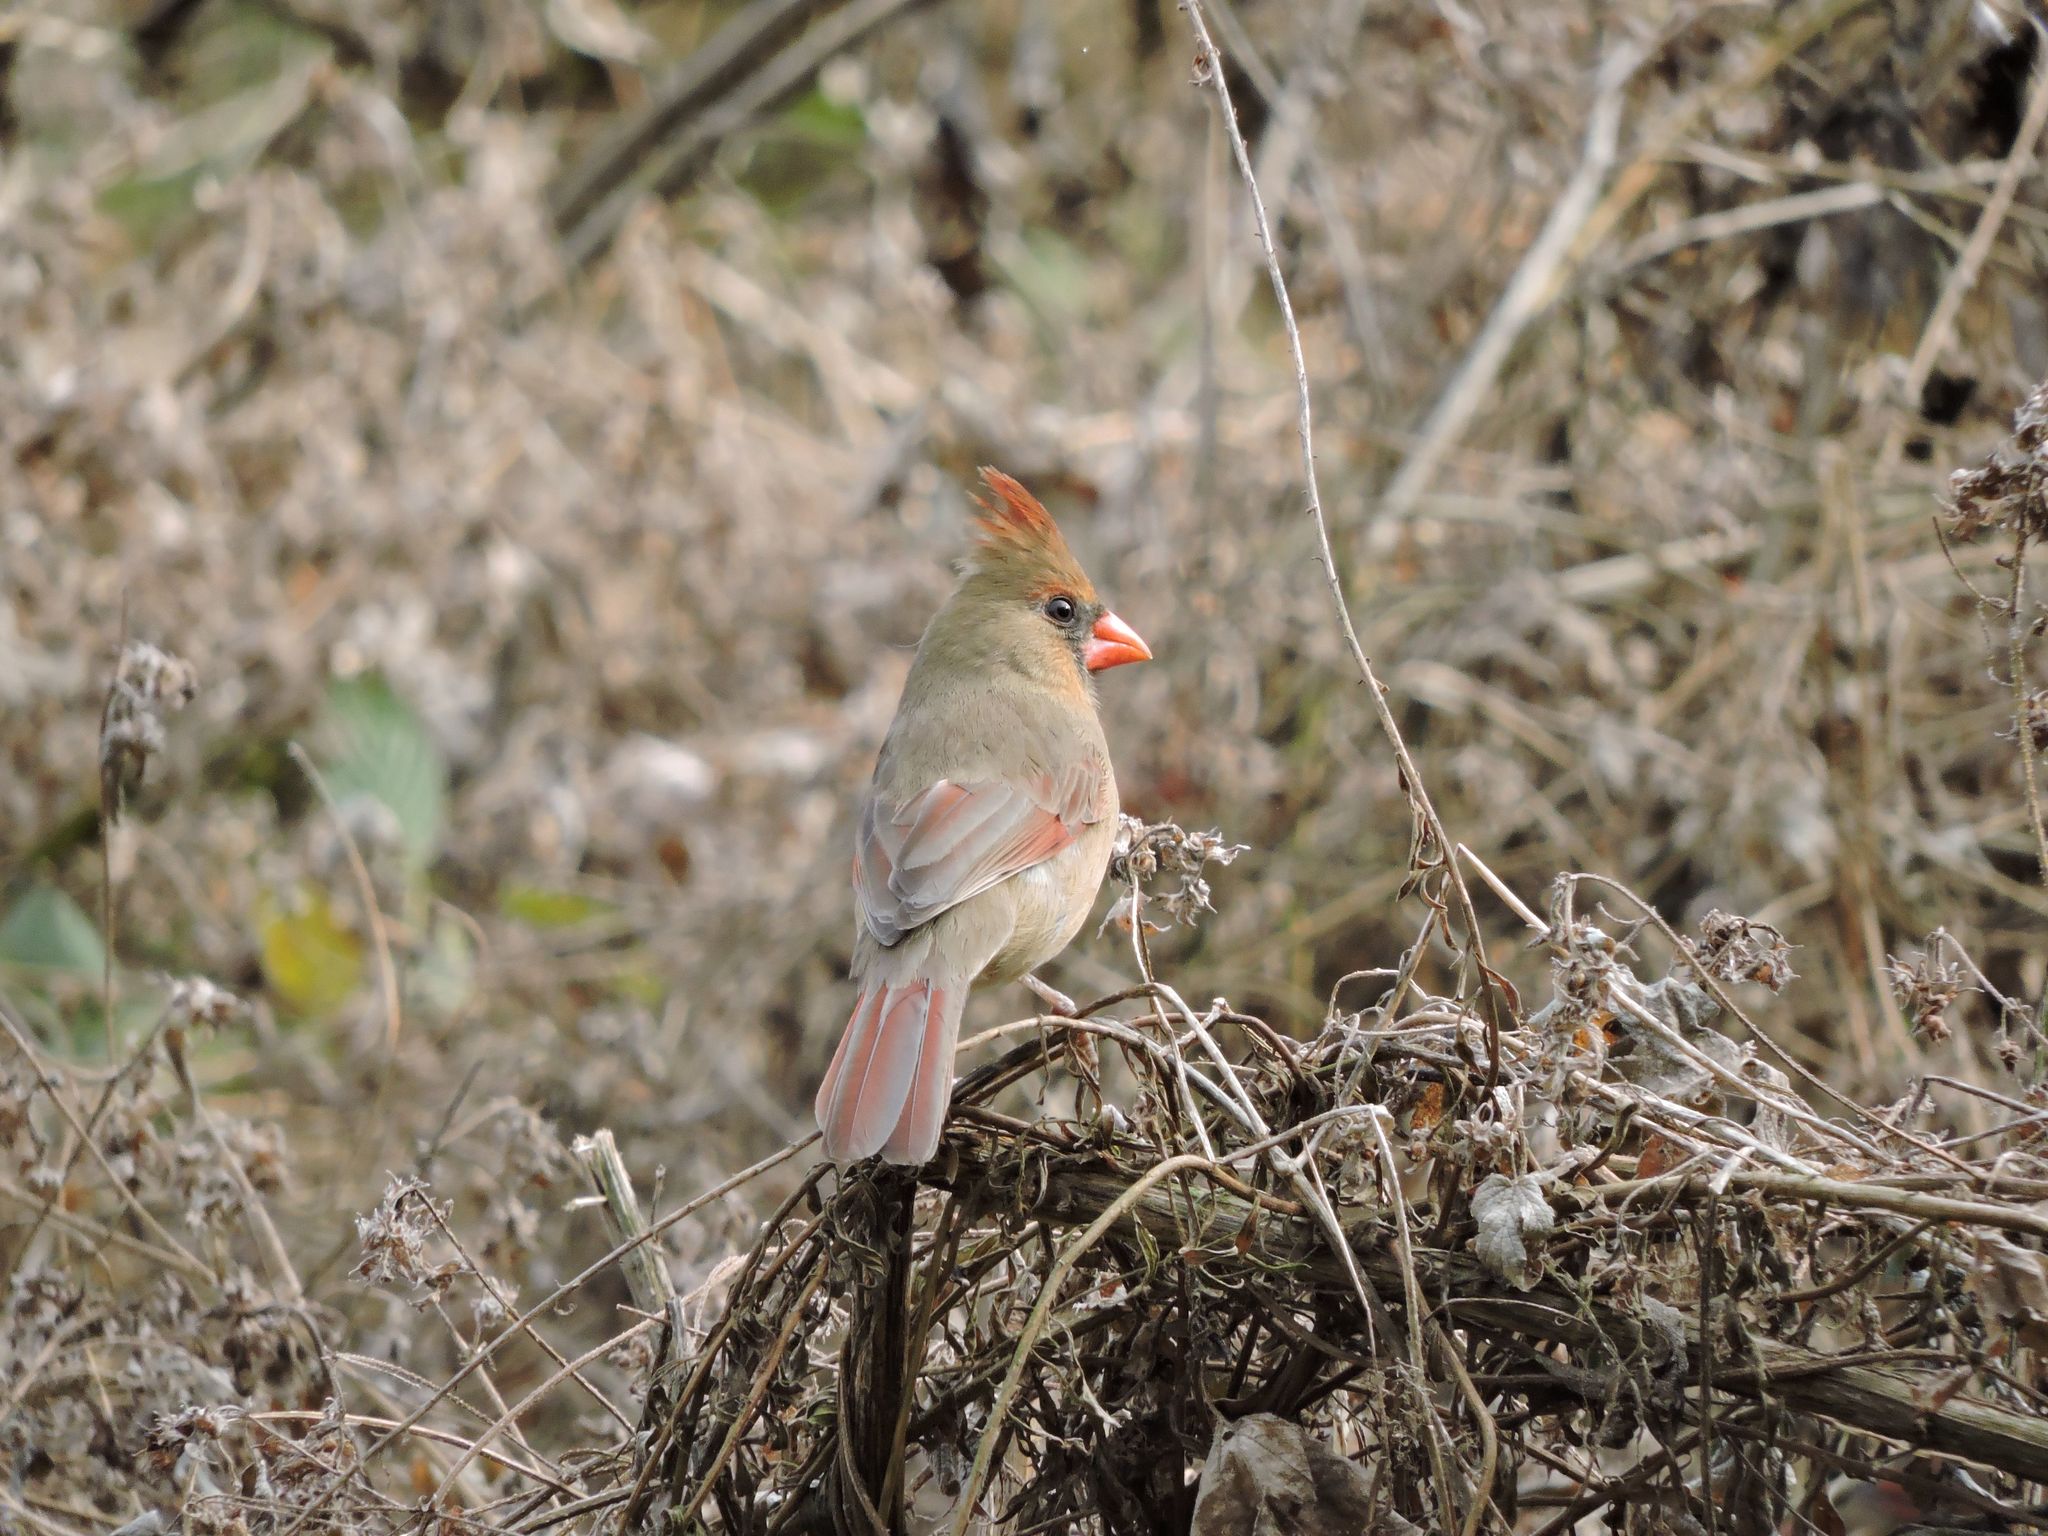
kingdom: Animalia
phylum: Chordata
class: Aves
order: Passeriformes
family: Cardinalidae
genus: Cardinalis
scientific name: Cardinalis cardinalis
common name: Northern cardinal
